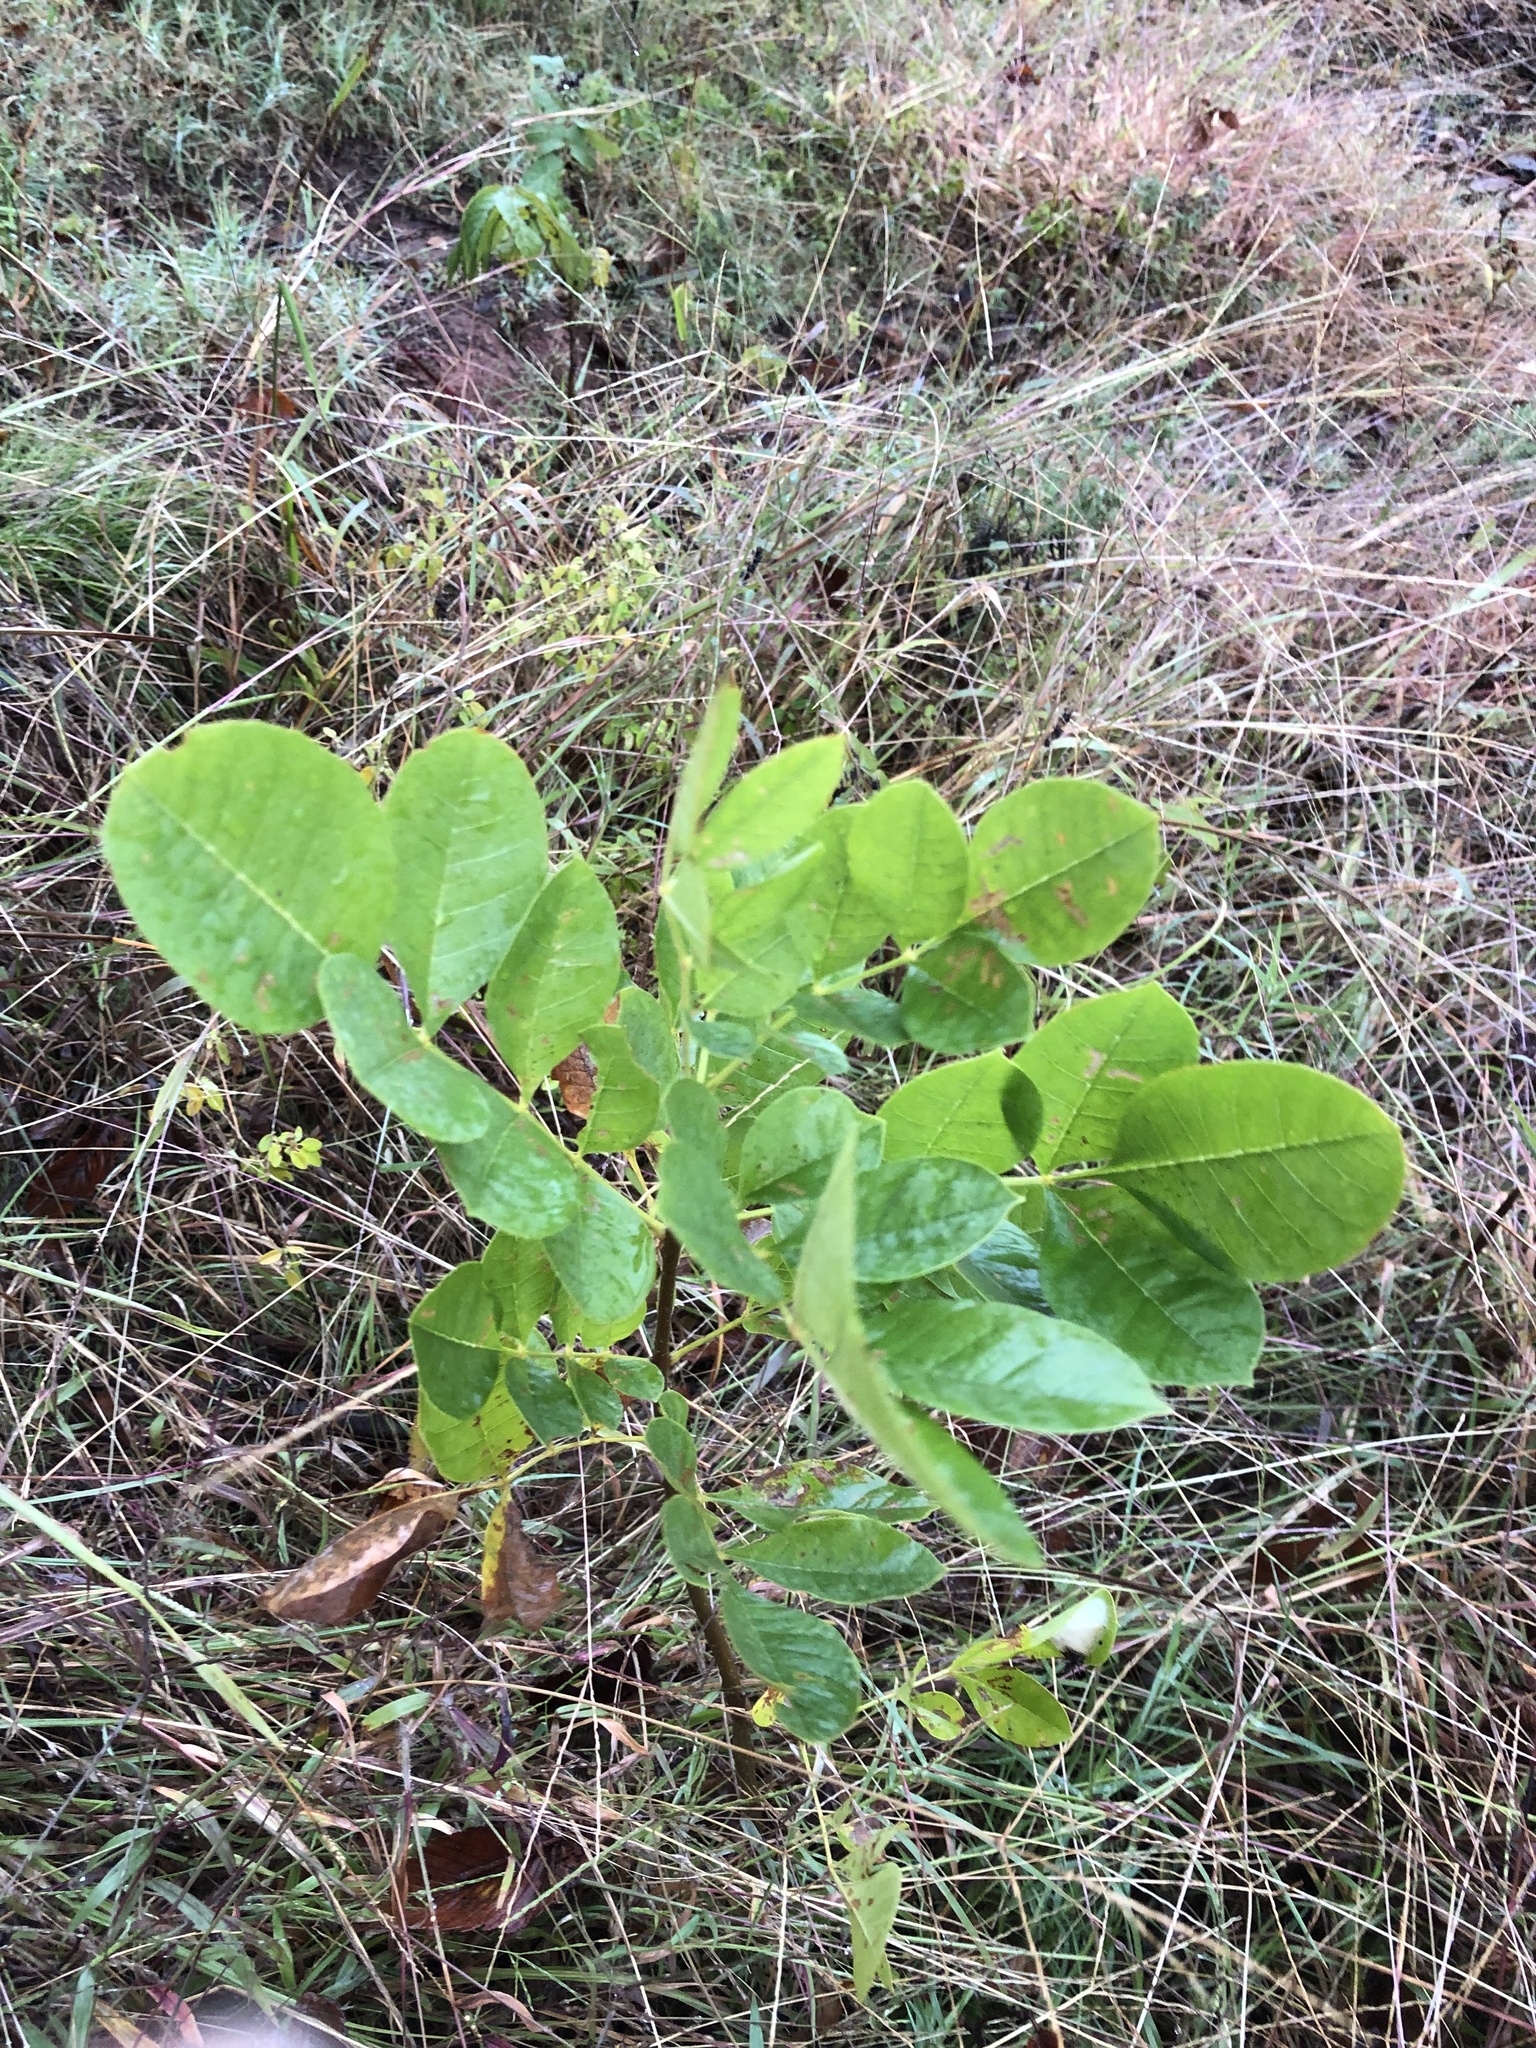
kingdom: Plantae
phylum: Tracheophyta
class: Magnoliopsida
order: Lamiales
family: Oleaceae
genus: Fraxinus
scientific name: Fraxinus americana
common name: White ash
